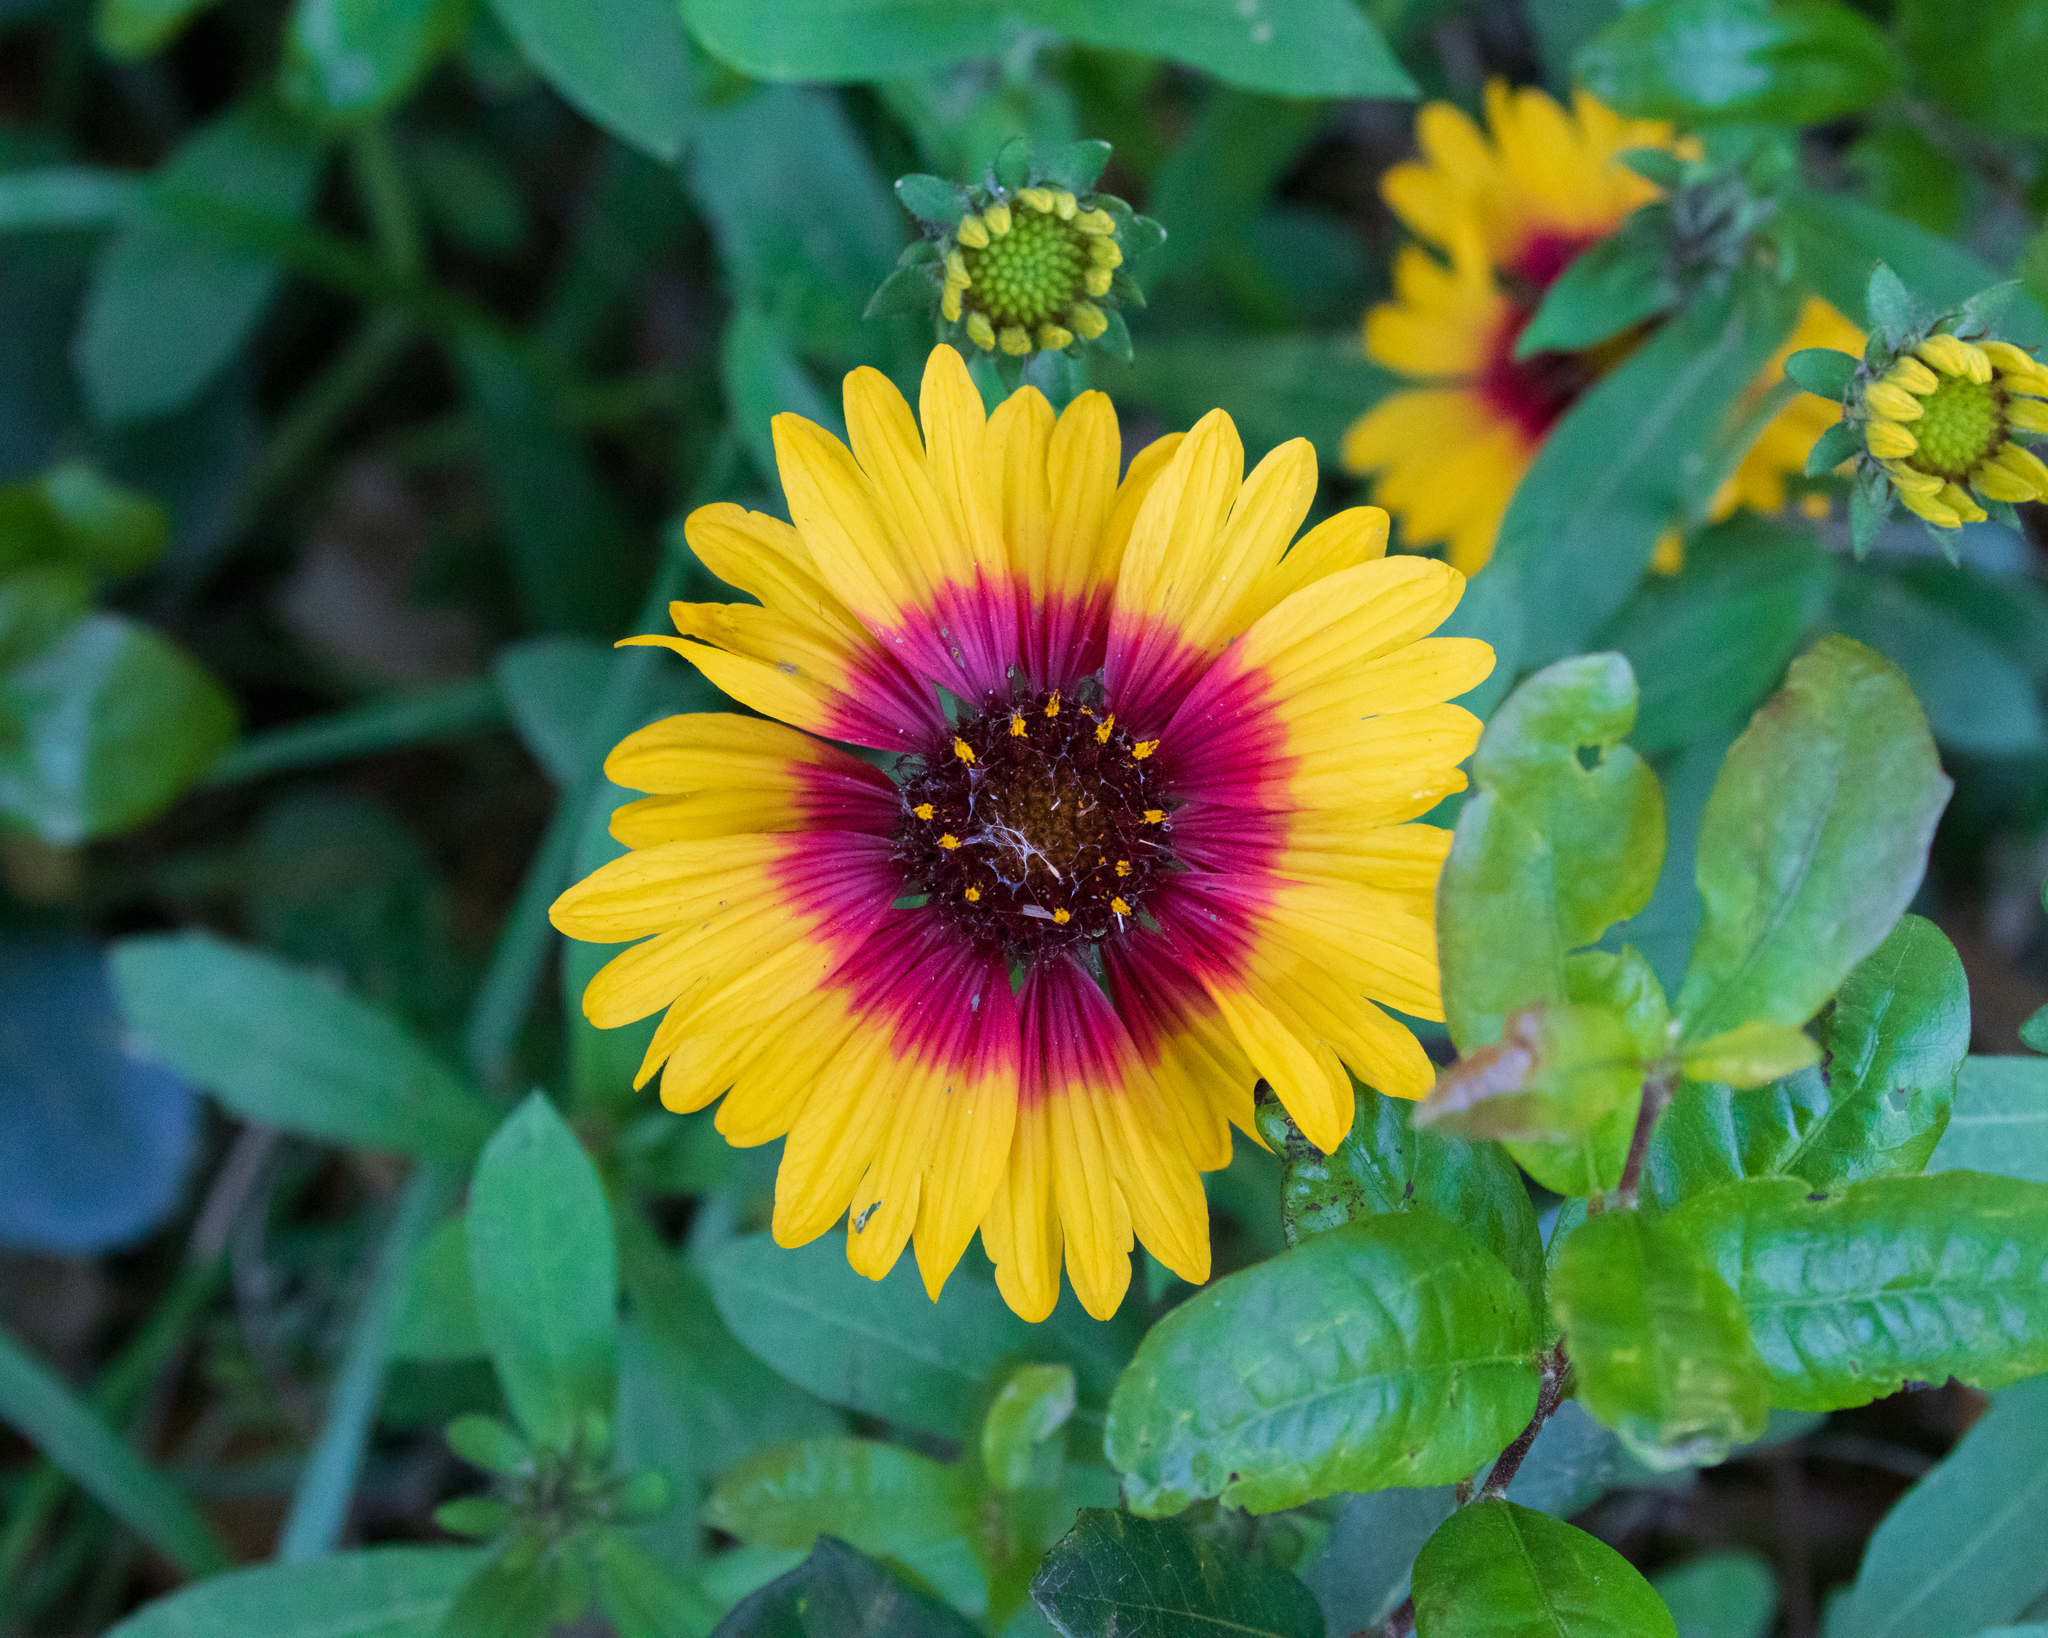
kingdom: Plantae
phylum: Tracheophyta
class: Magnoliopsida
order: Asterales
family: Asteraceae
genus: Gaillardia
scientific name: Gaillardia pulchella
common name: Firewheel
